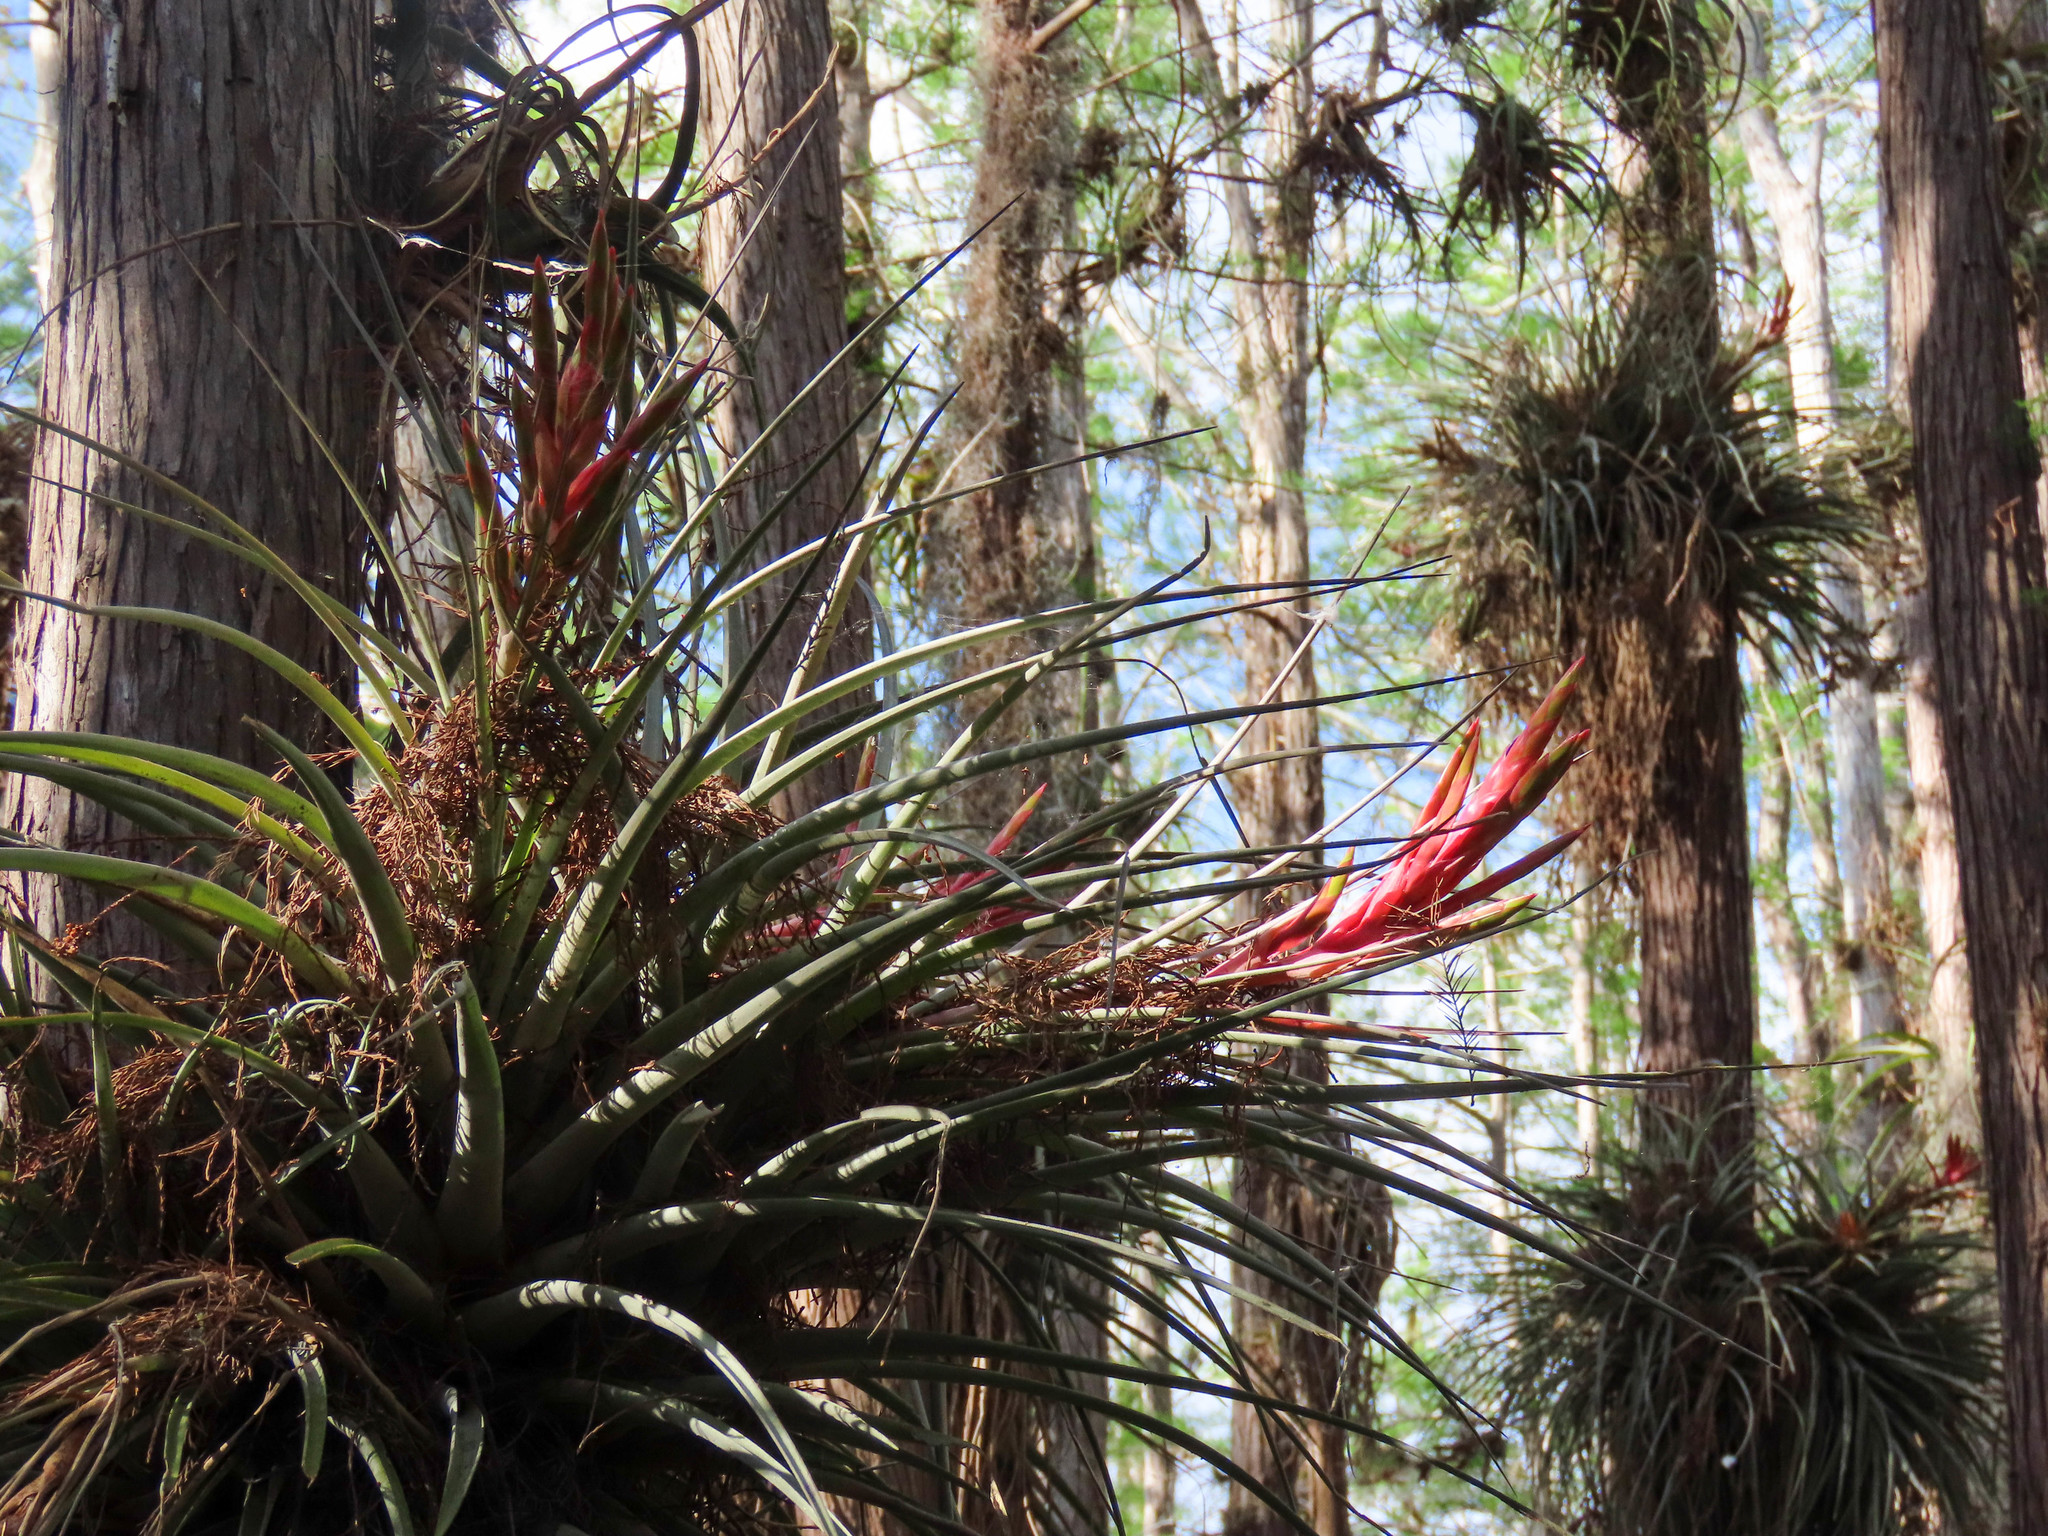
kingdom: Plantae
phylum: Tracheophyta
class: Liliopsida
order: Poales
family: Bromeliaceae
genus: Tillandsia
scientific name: Tillandsia fasciculata
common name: Giant airplant
